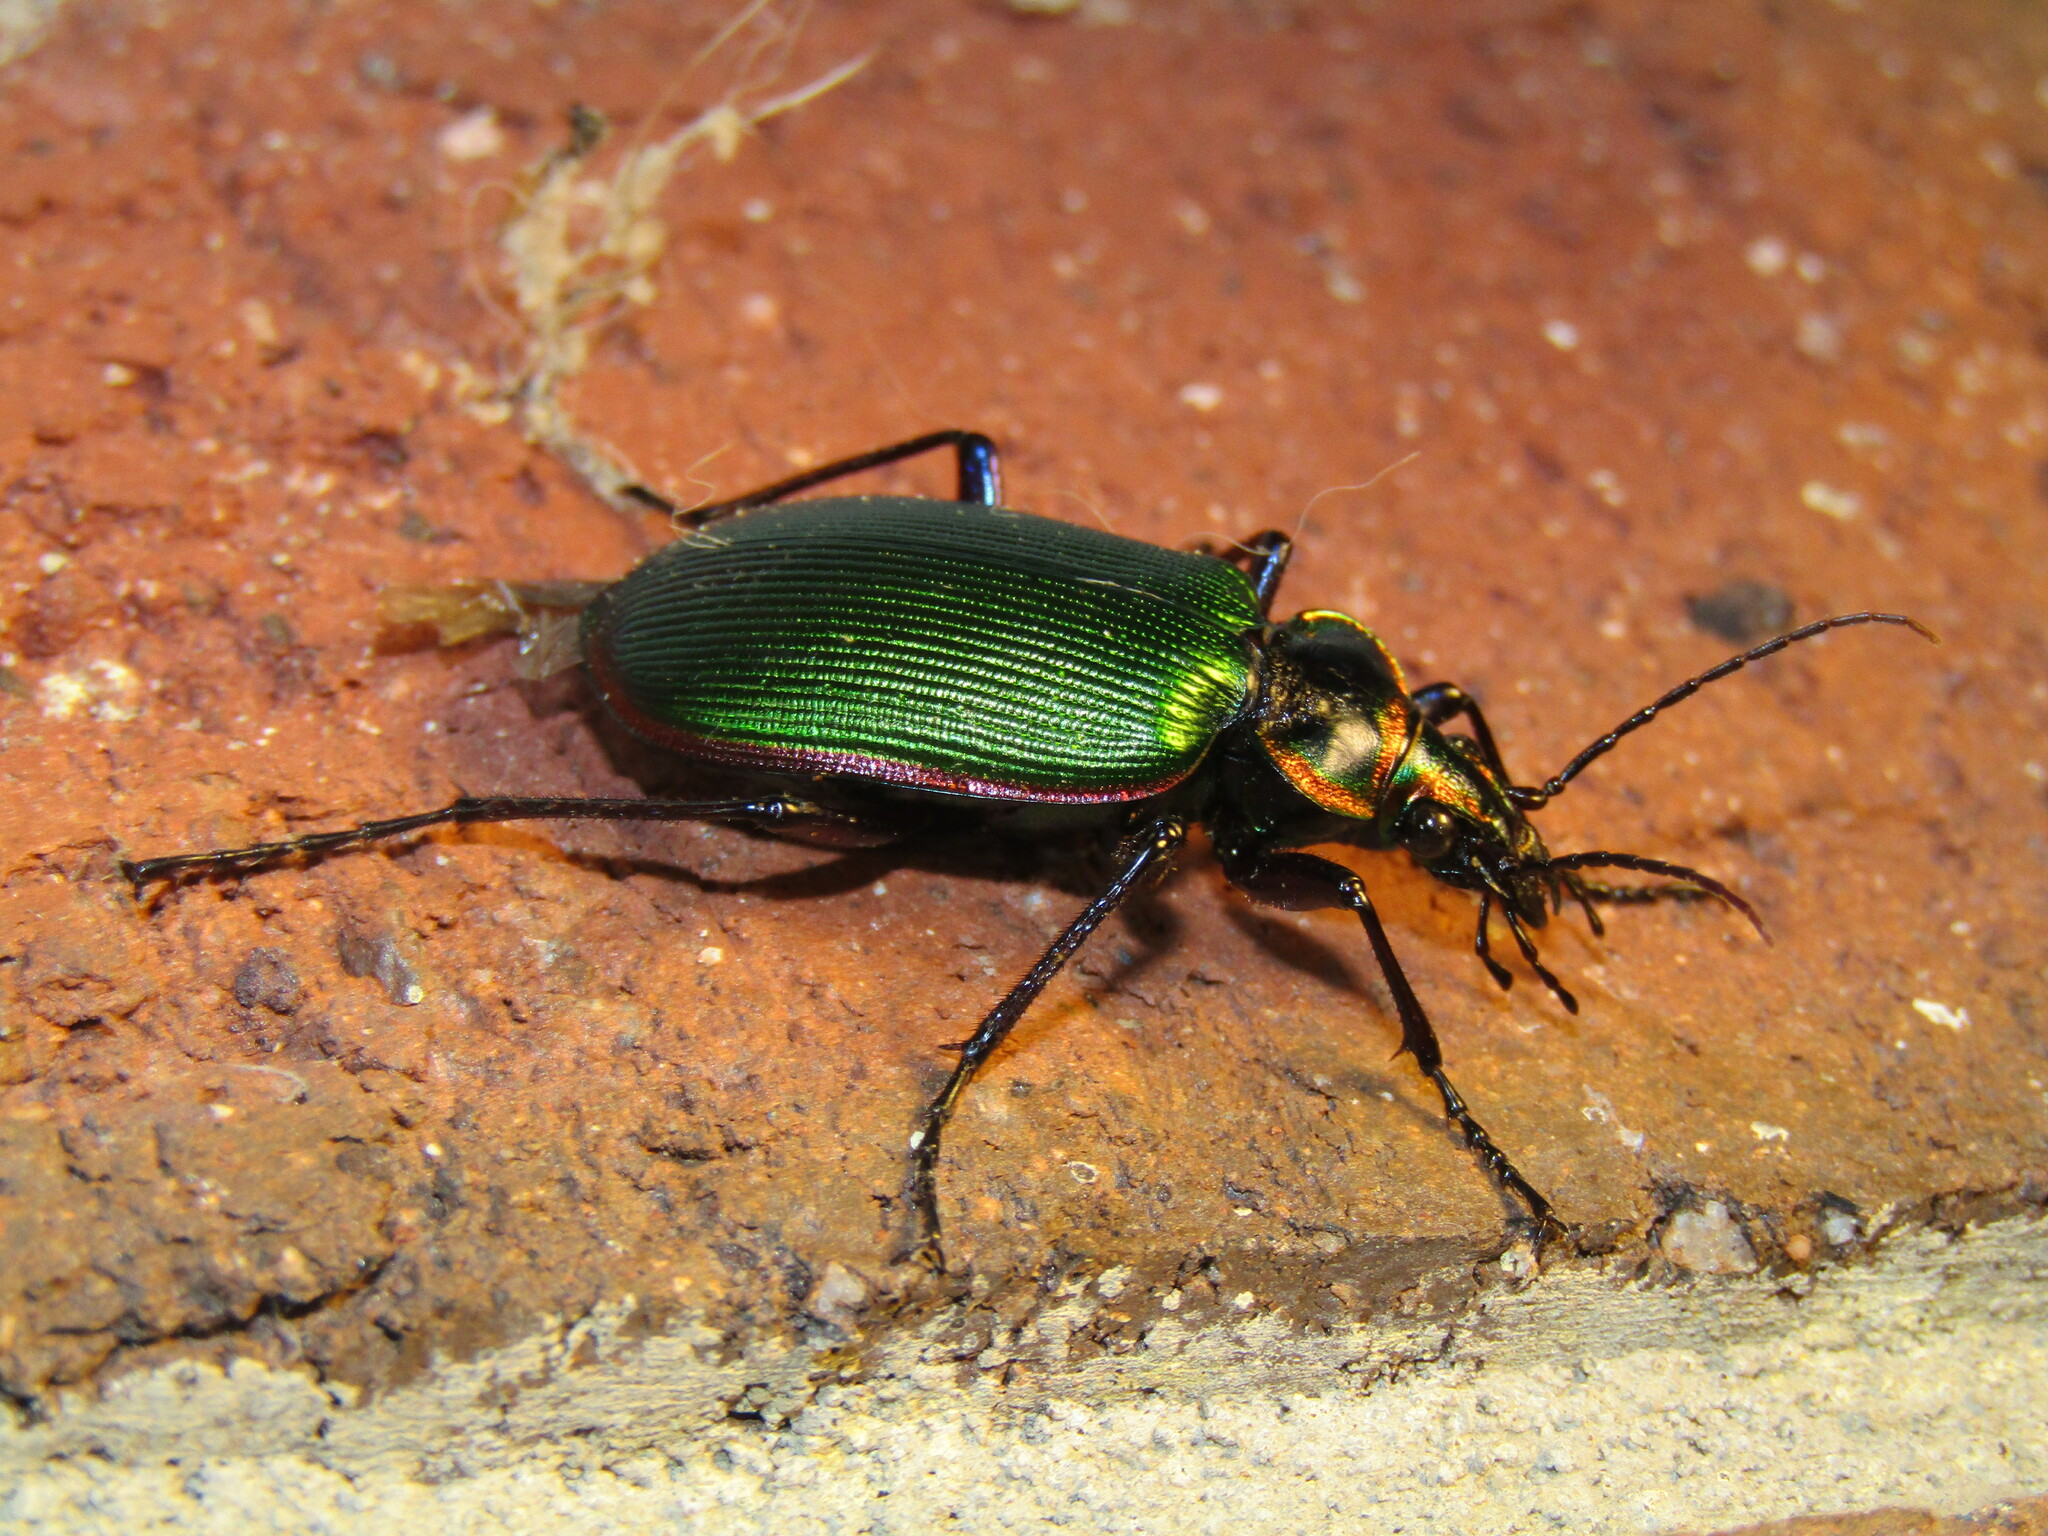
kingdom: Animalia
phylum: Arthropoda
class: Insecta
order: Coleoptera
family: Carabidae
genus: Calosoma
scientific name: Calosoma scrutator
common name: Fiery searcher beetle
